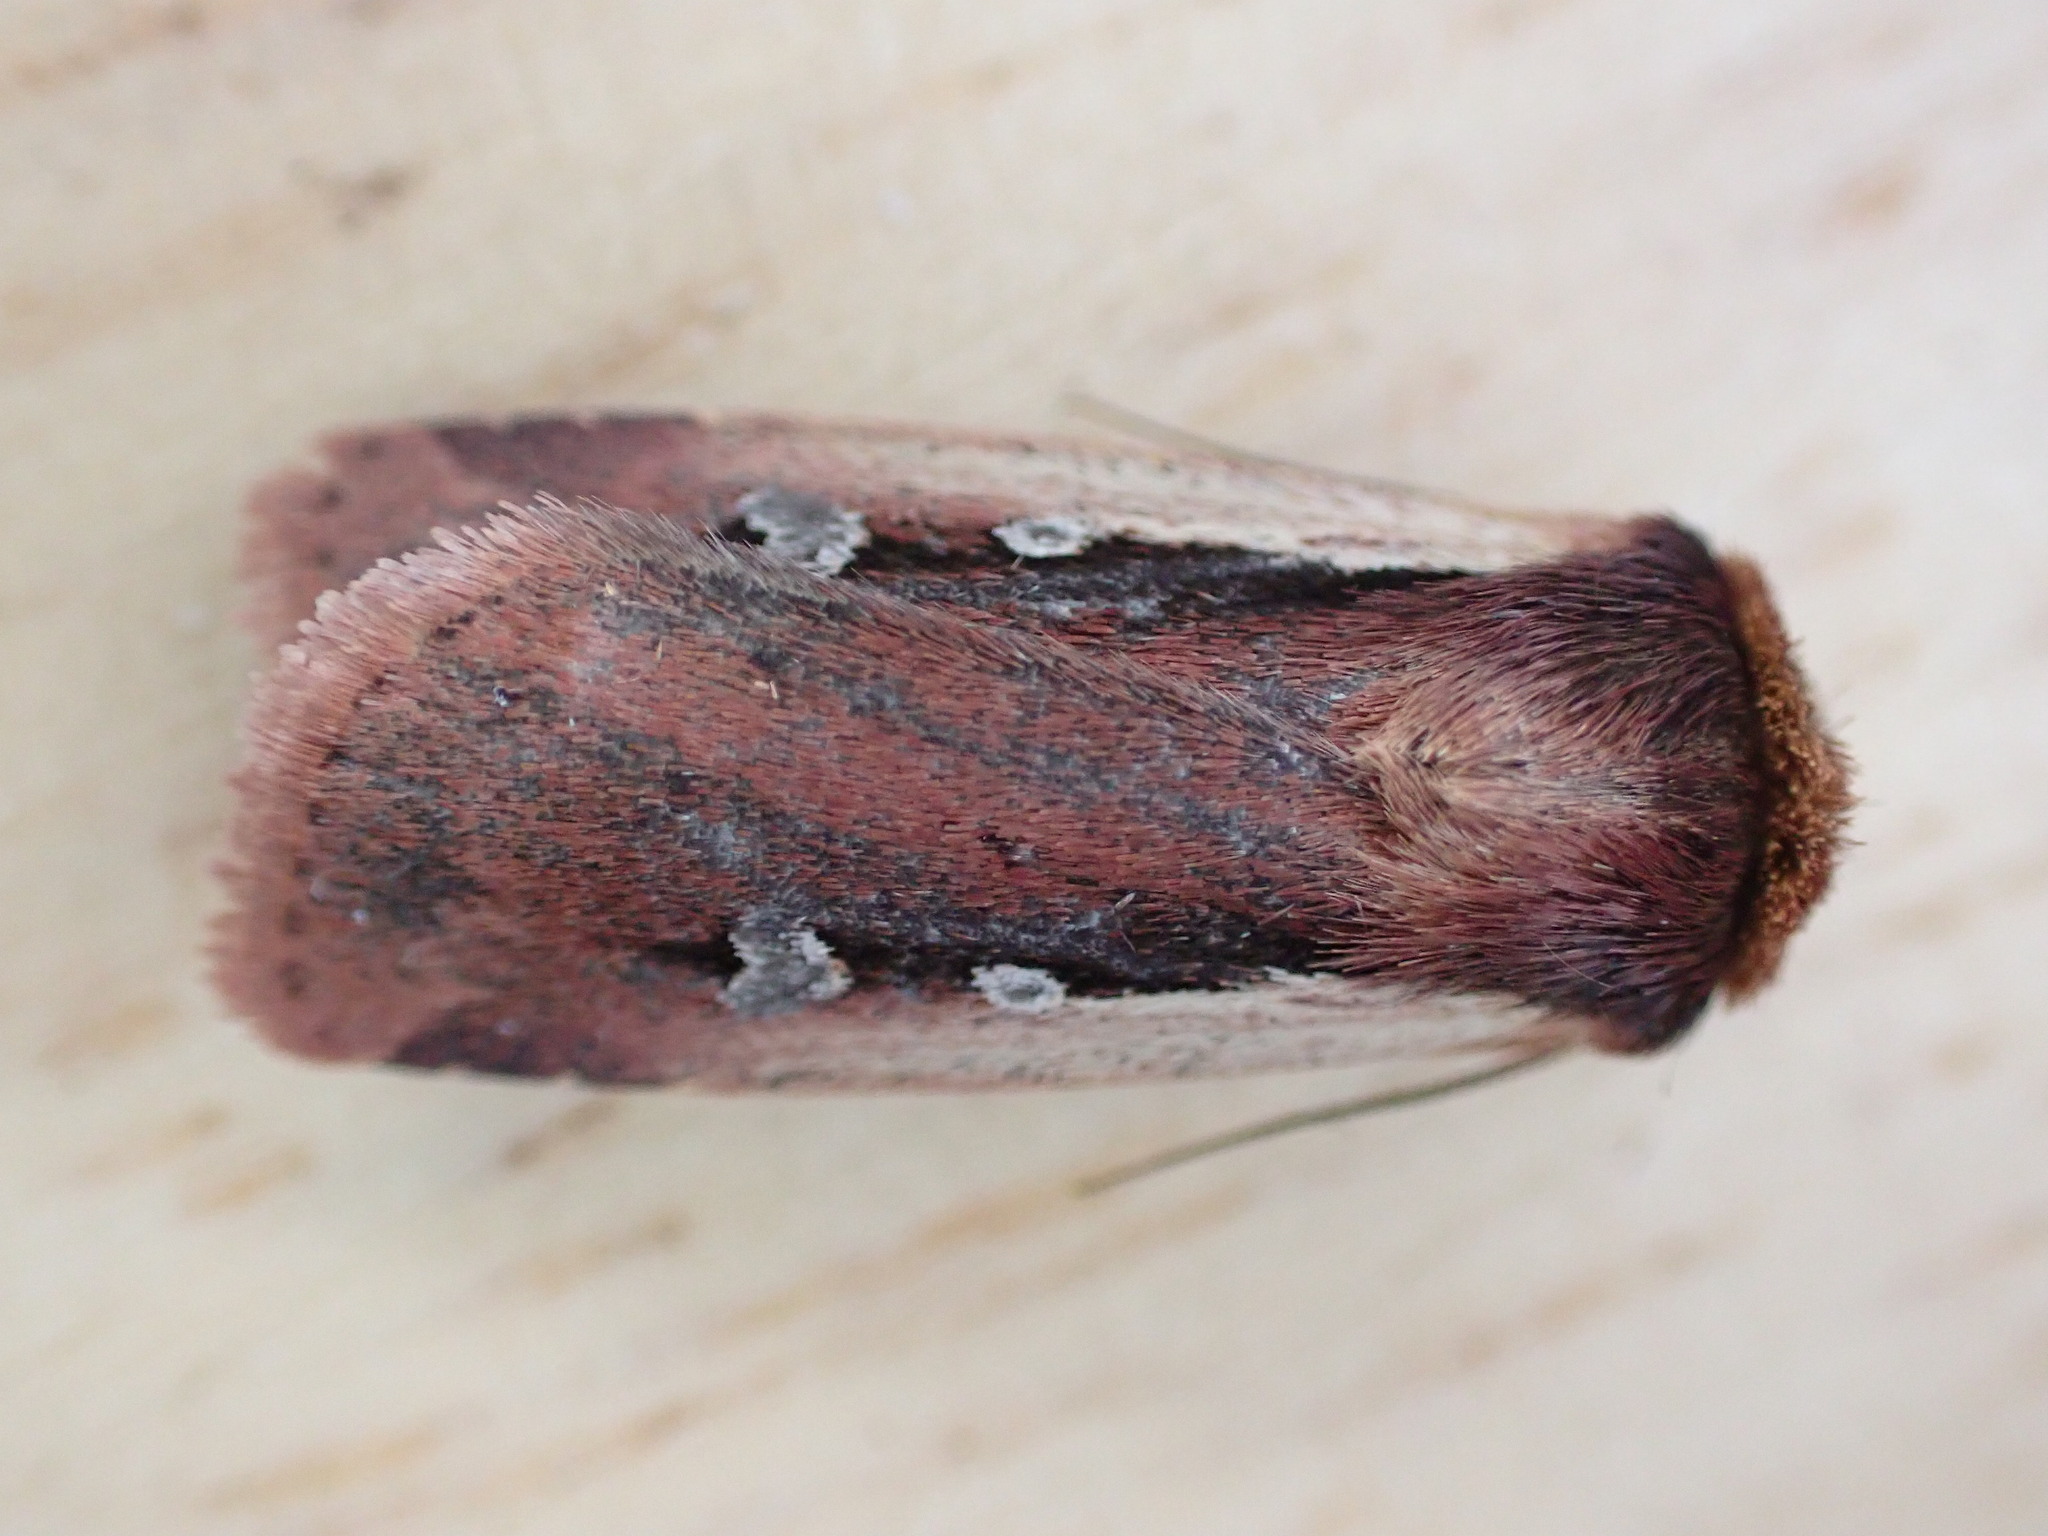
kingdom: Animalia
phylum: Arthropoda
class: Insecta
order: Lepidoptera
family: Noctuidae
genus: Ochropleura
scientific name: Ochropleura plecta
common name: Flame shoulder
